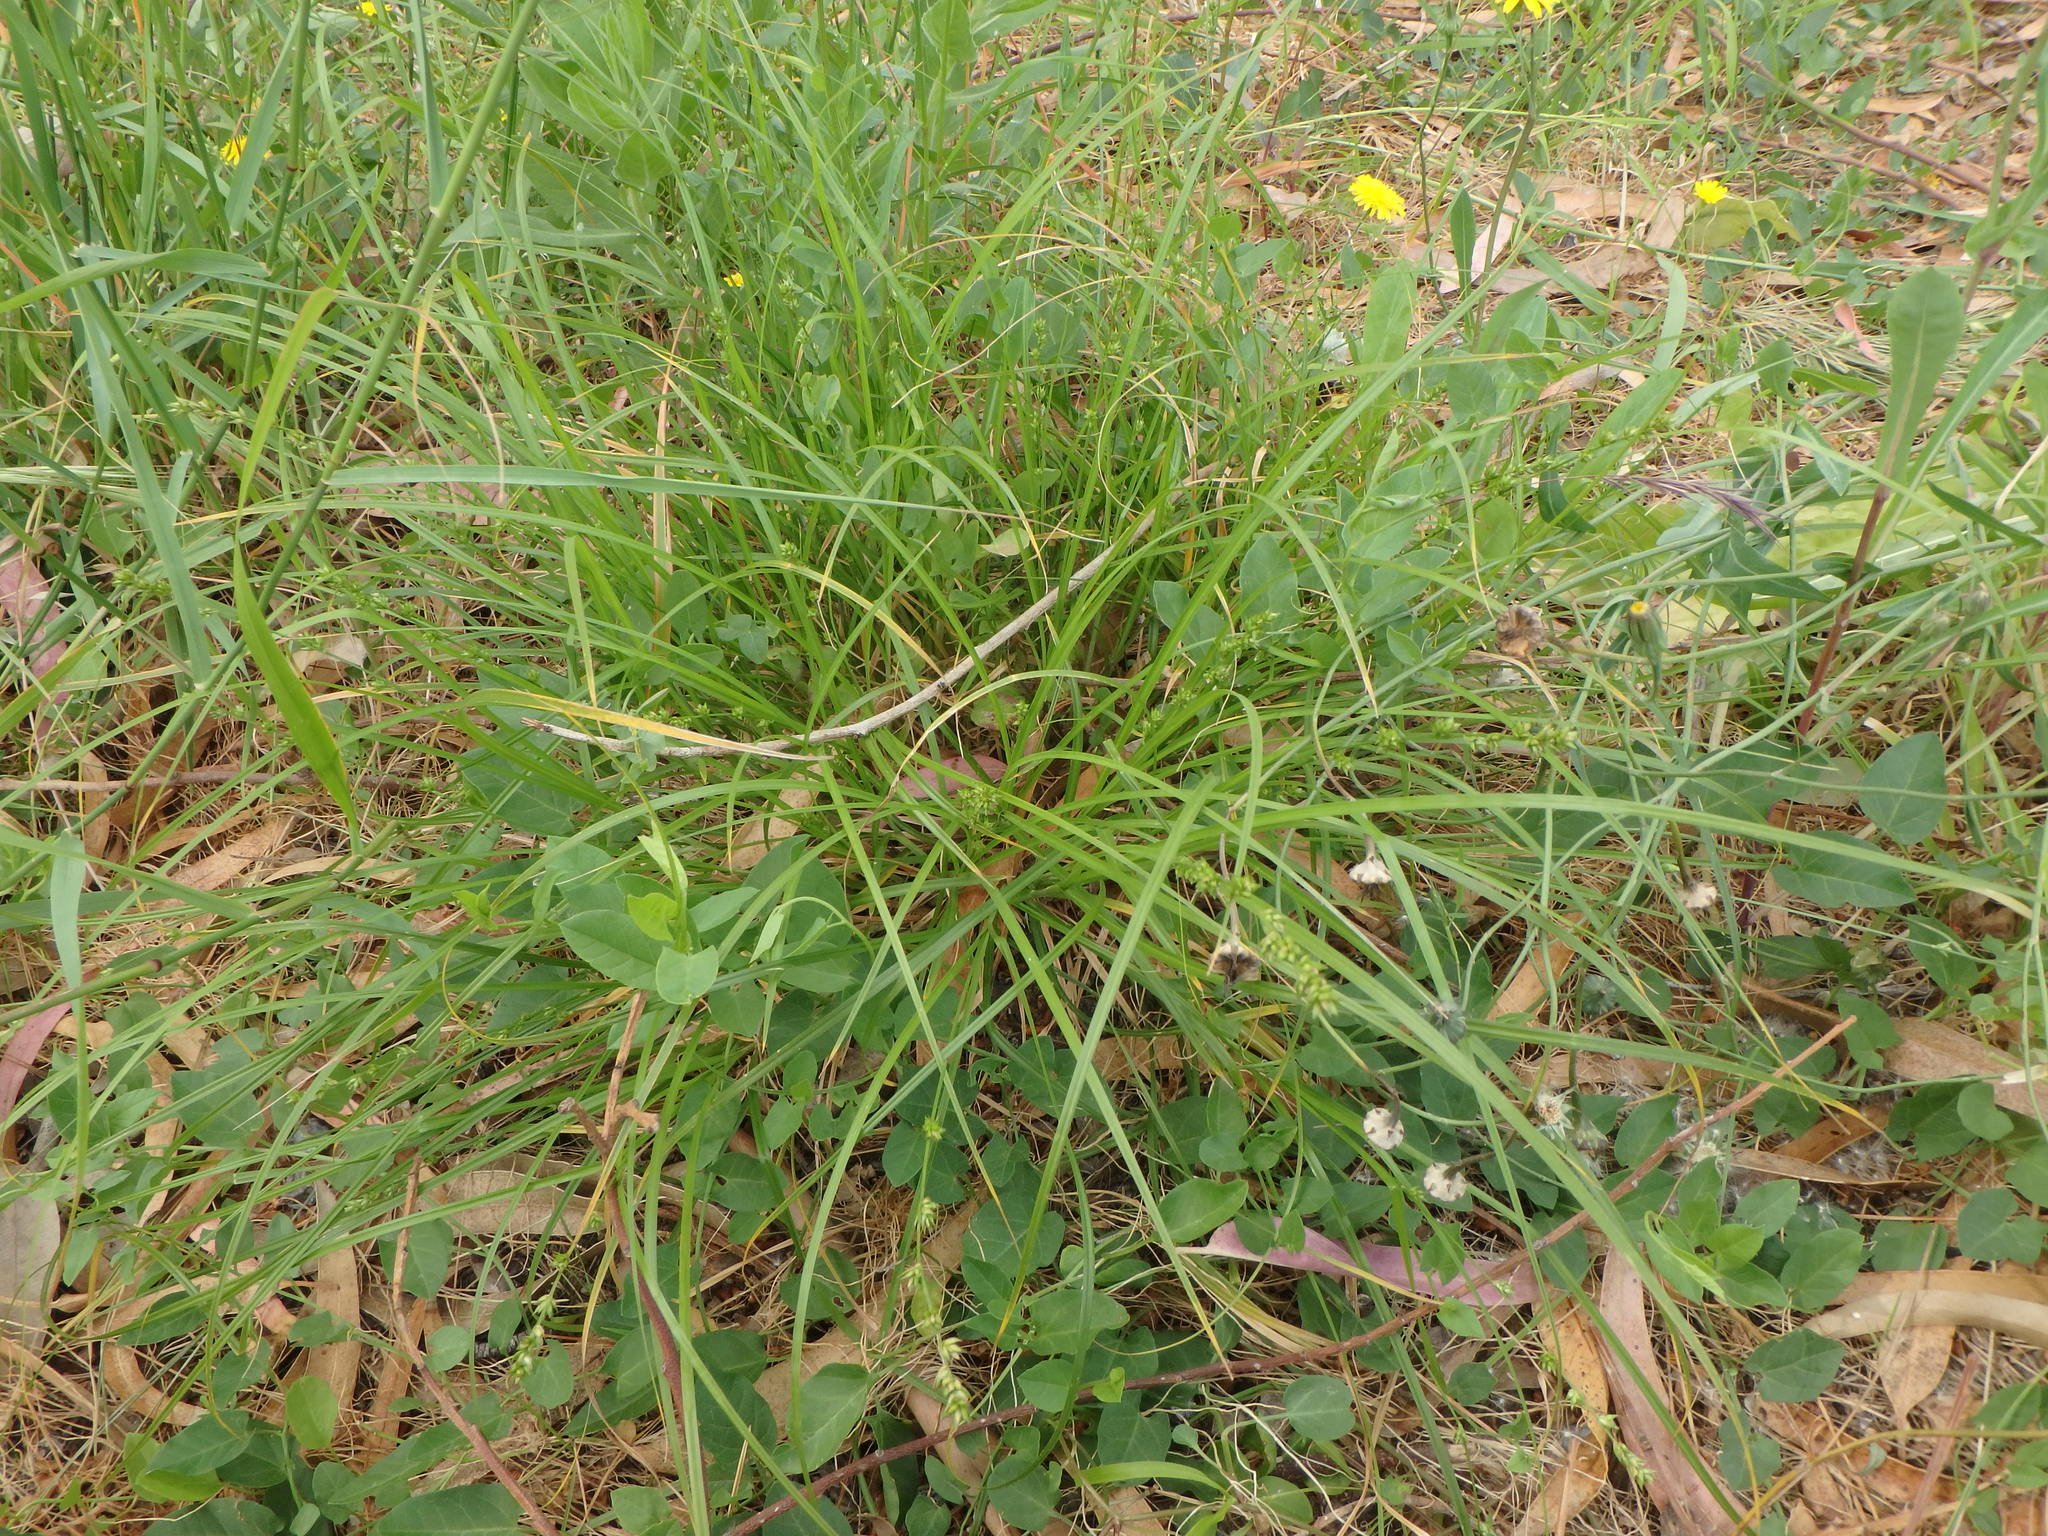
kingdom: Plantae
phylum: Tracheophyta
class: Liliopsida
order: Poales
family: Cyperaceae
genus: Carex
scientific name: Carex divulsa
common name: Grassland sedge
